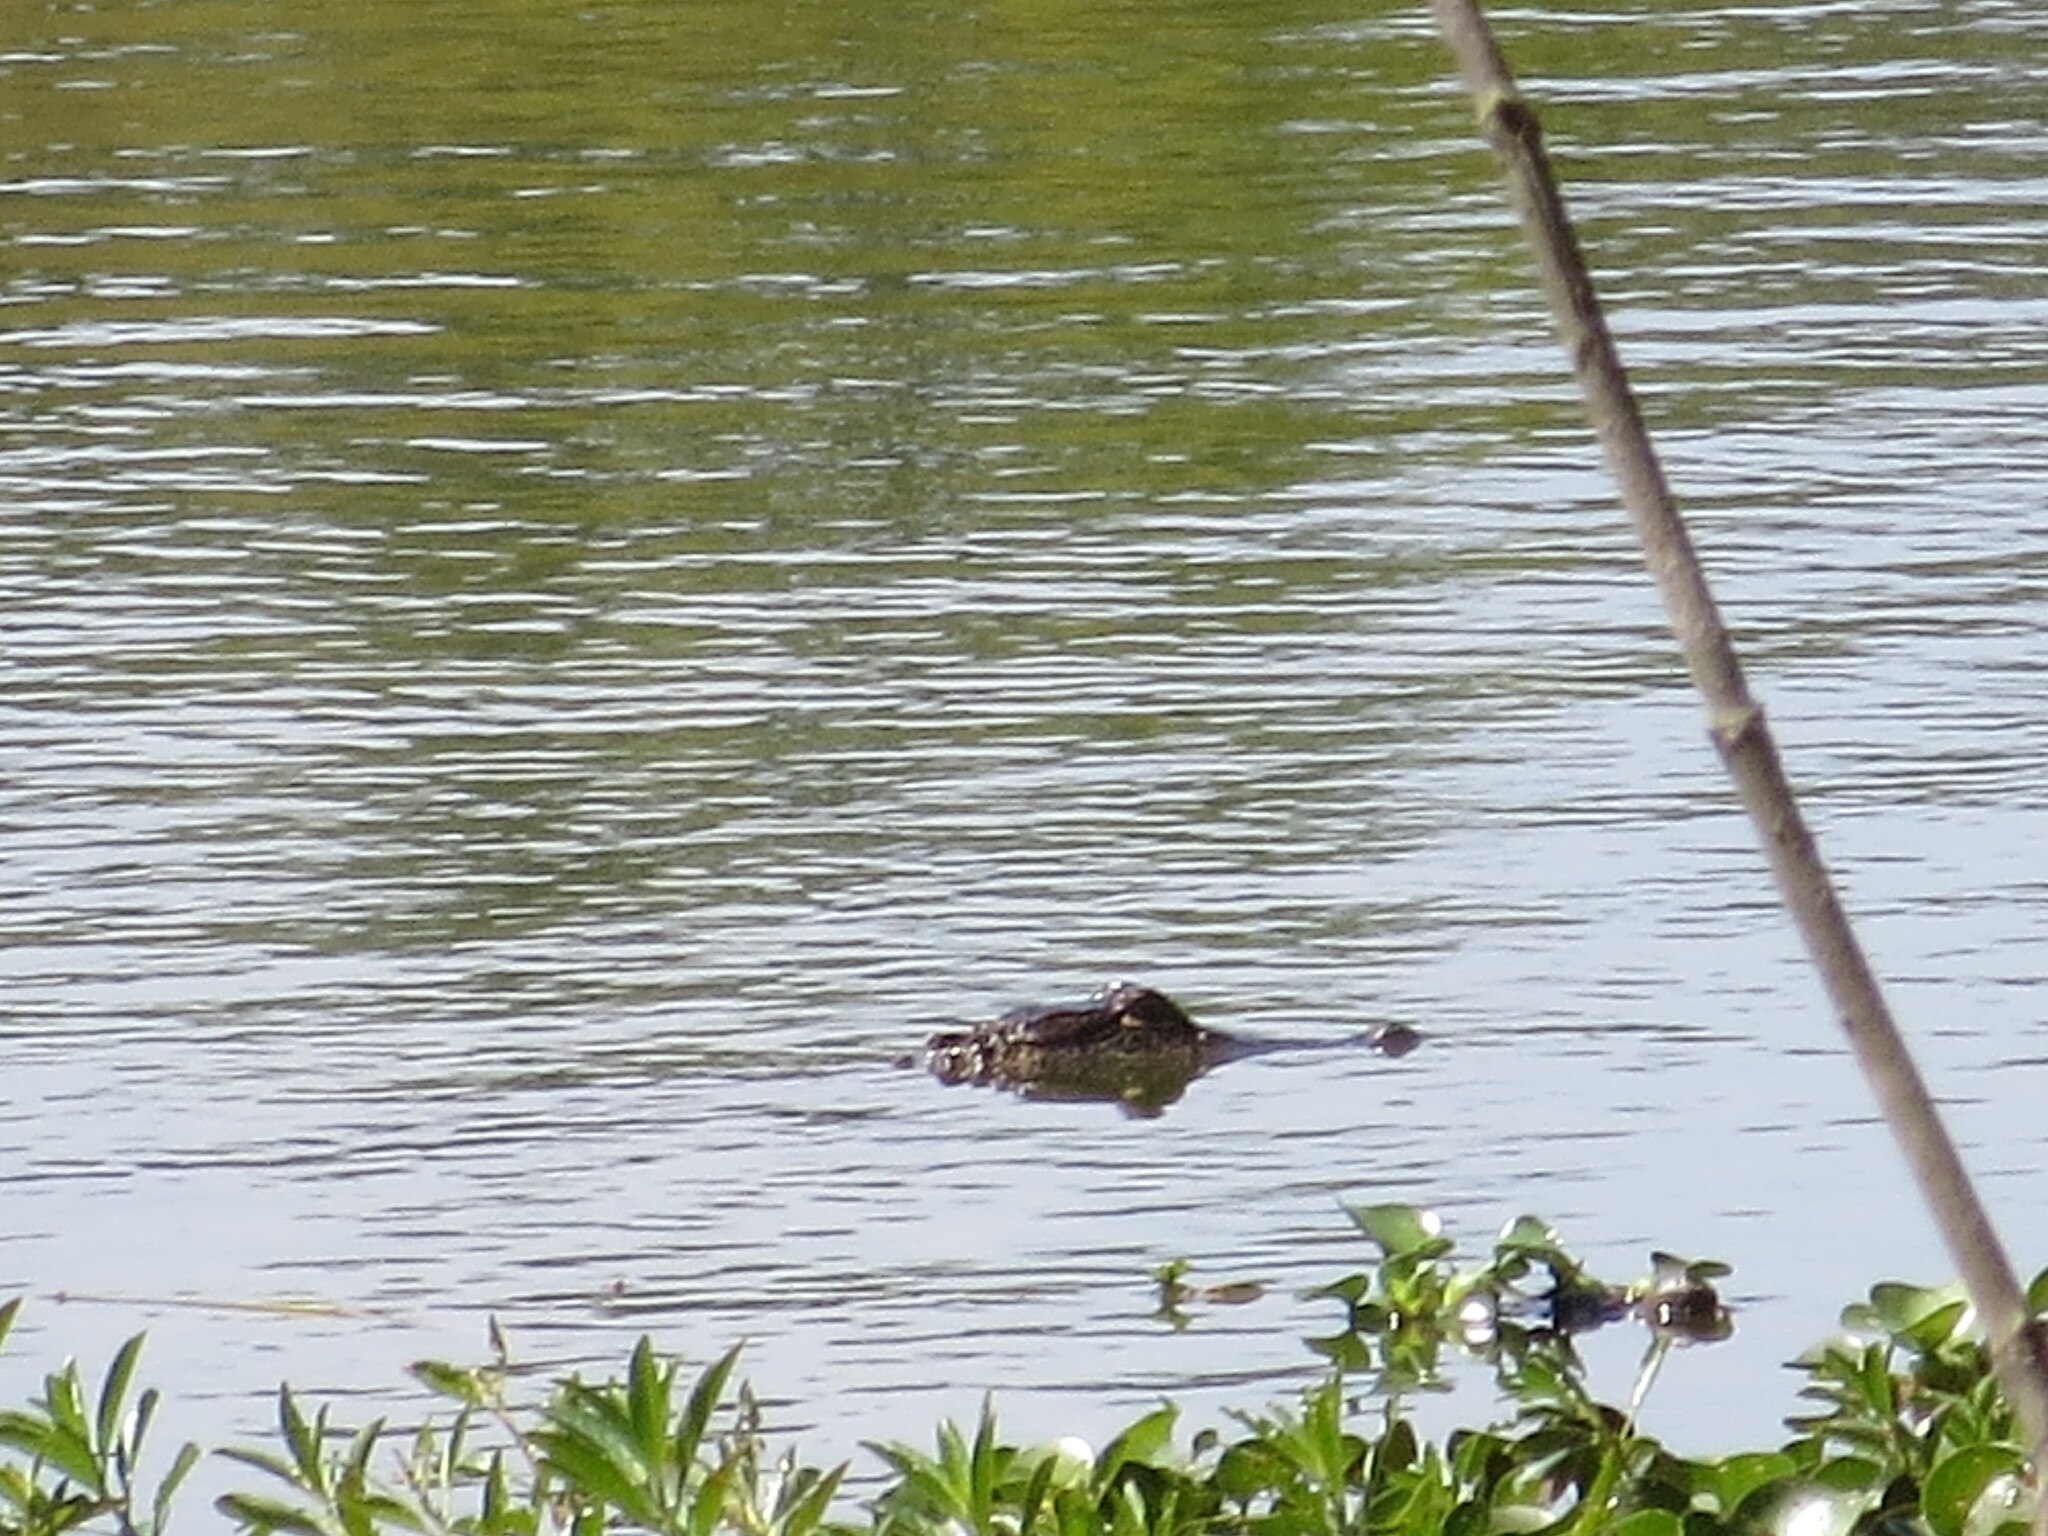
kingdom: Animalia
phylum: Chordata
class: Crocodylia
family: Alligatoridae
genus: Alligator
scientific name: Alligator mississippiensis
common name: American alligator
